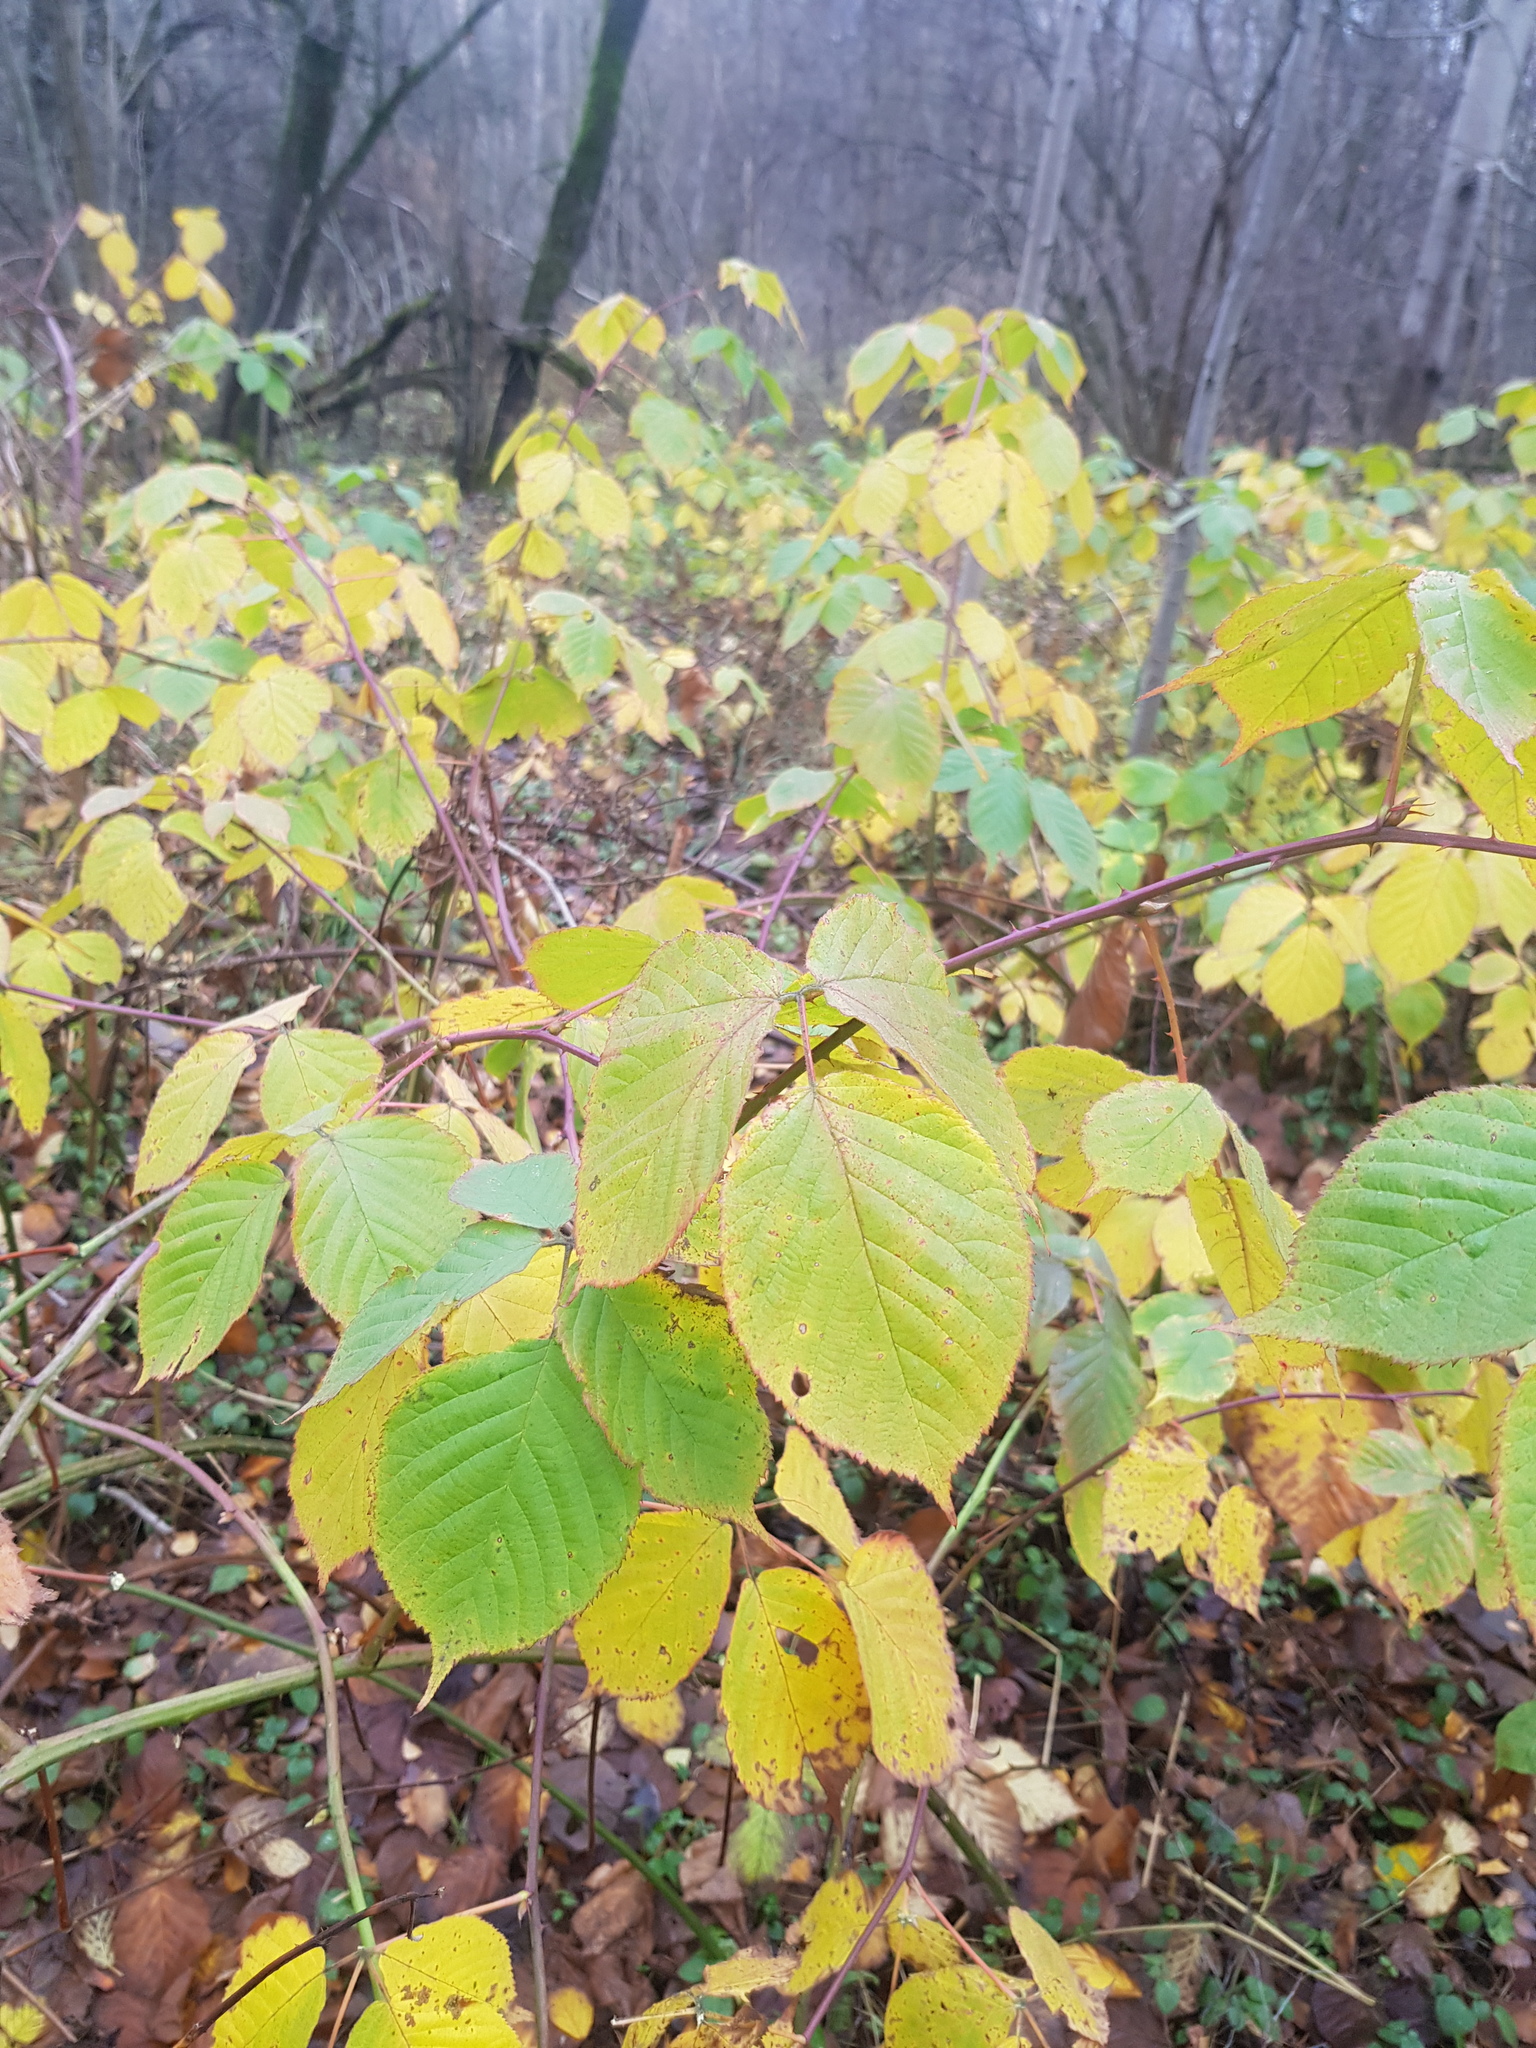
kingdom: Plantae
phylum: Tracheophyta
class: Magnoliopsida
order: Rosales
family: Rosaceae
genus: Rubus
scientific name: Rubus allegheniensis
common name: Allegheny blackberry
